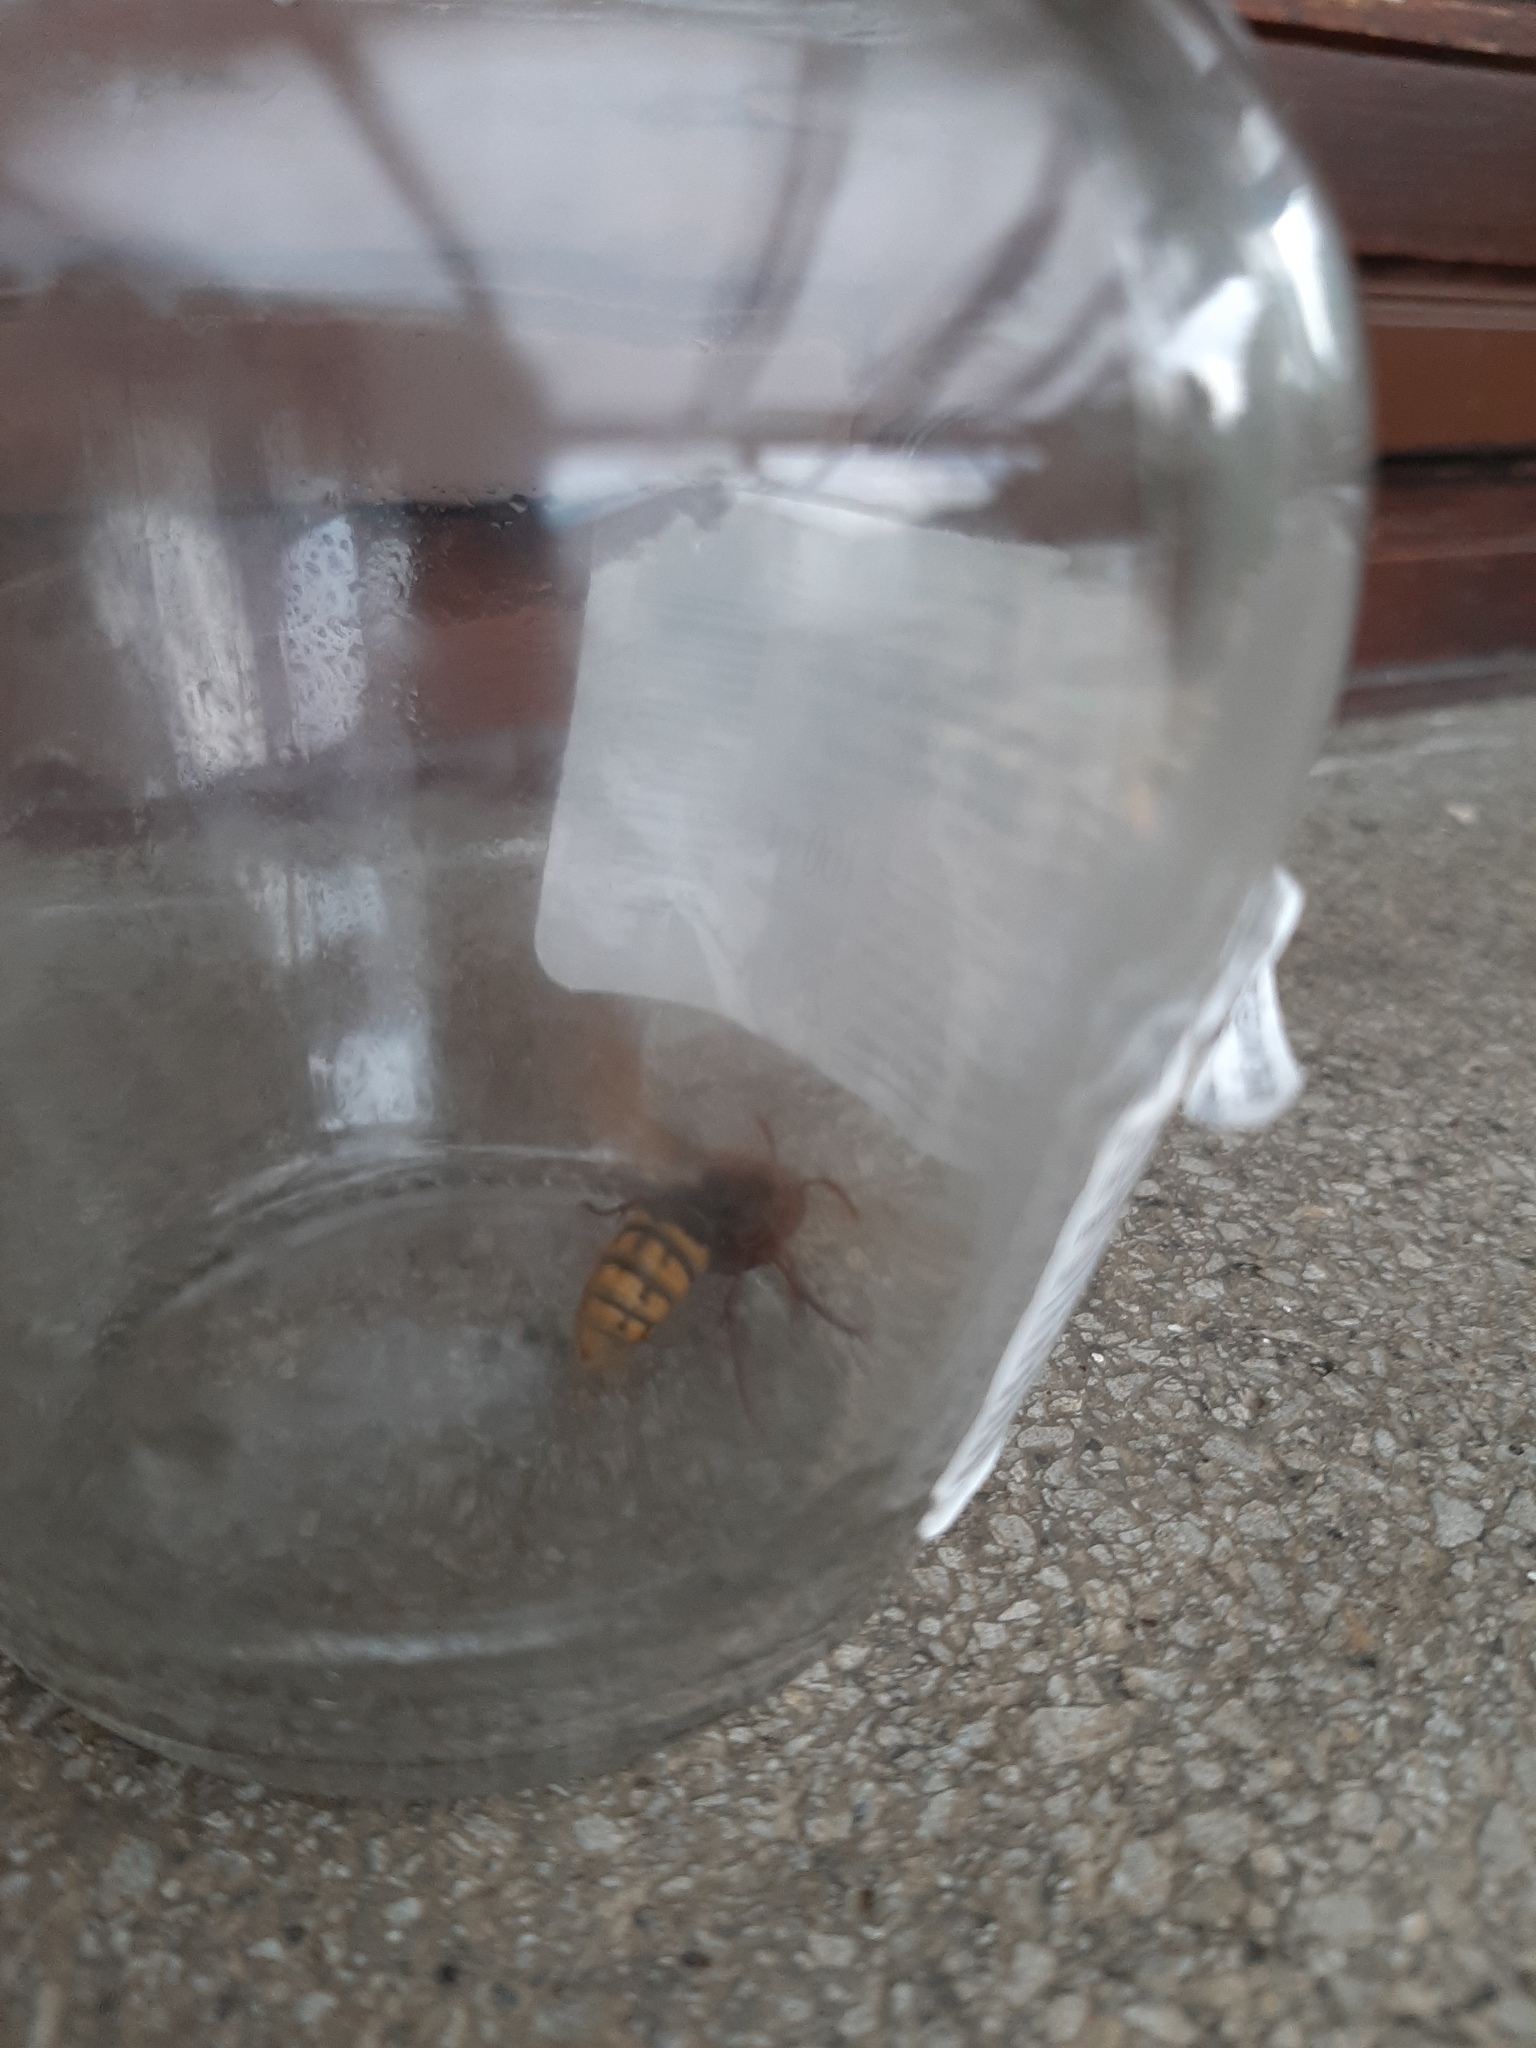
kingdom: Animalia
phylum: Arthropoda
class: Insecta
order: Hymenoptera
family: Vespidae
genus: Vespa
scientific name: Vespa crabro
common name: Hornet
